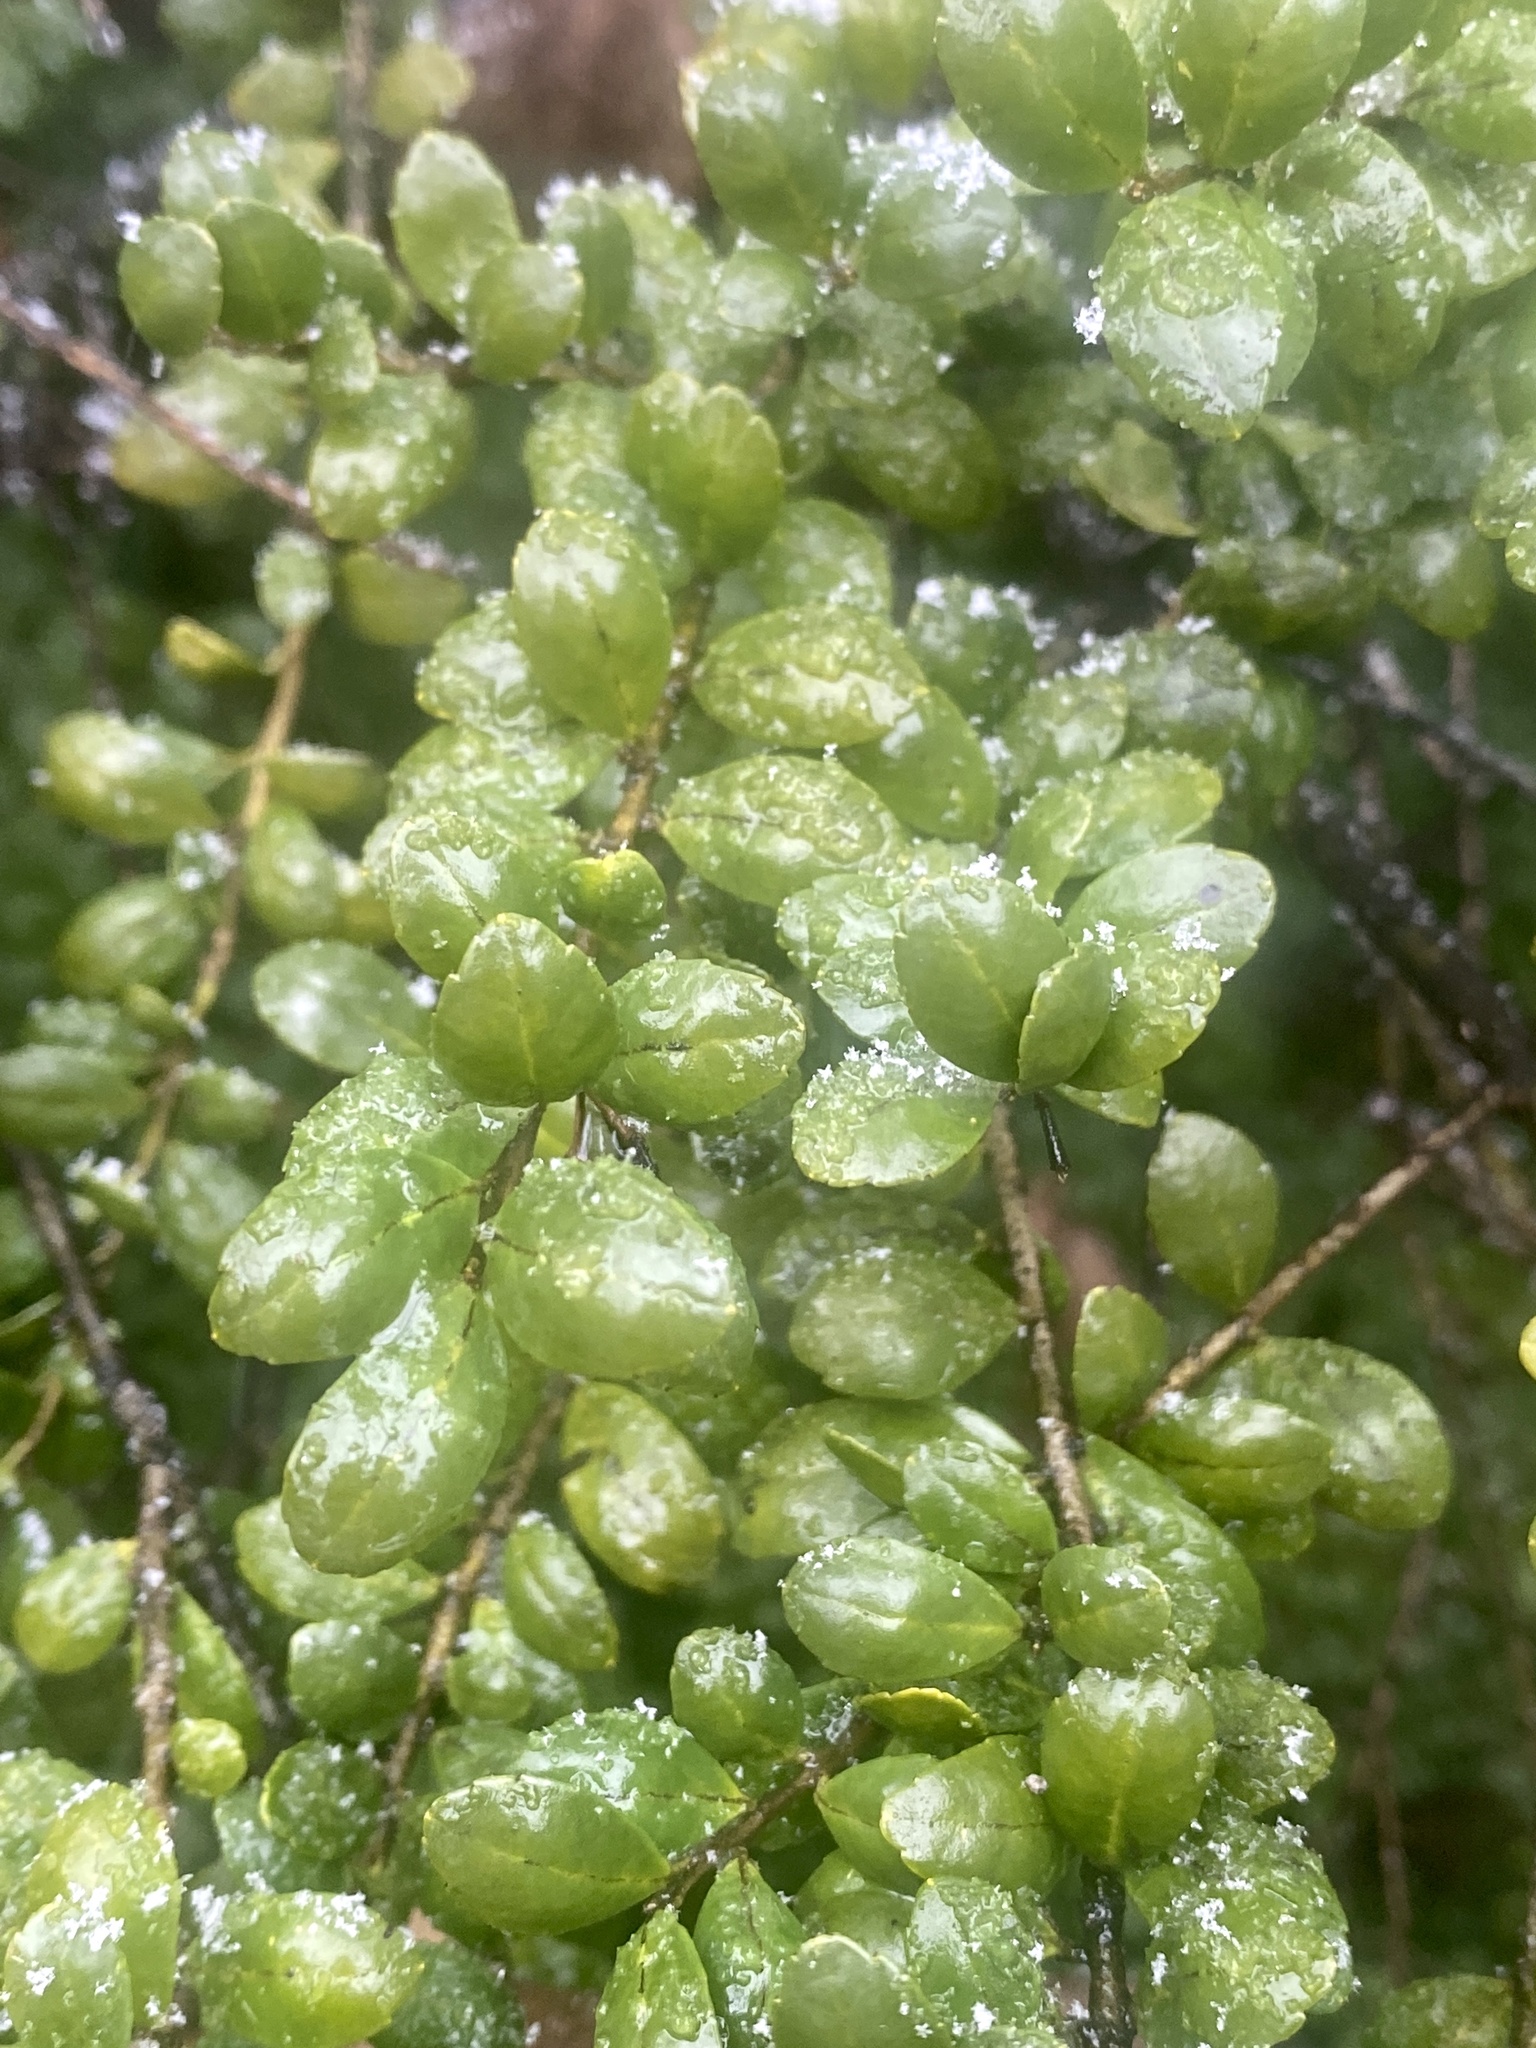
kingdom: Plantae
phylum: Tracheophyta
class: Magnoliopsida
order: Aquifoliales
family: Aquifoliaceae
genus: Ilex
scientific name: Ilex crenata
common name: Japanese holly
